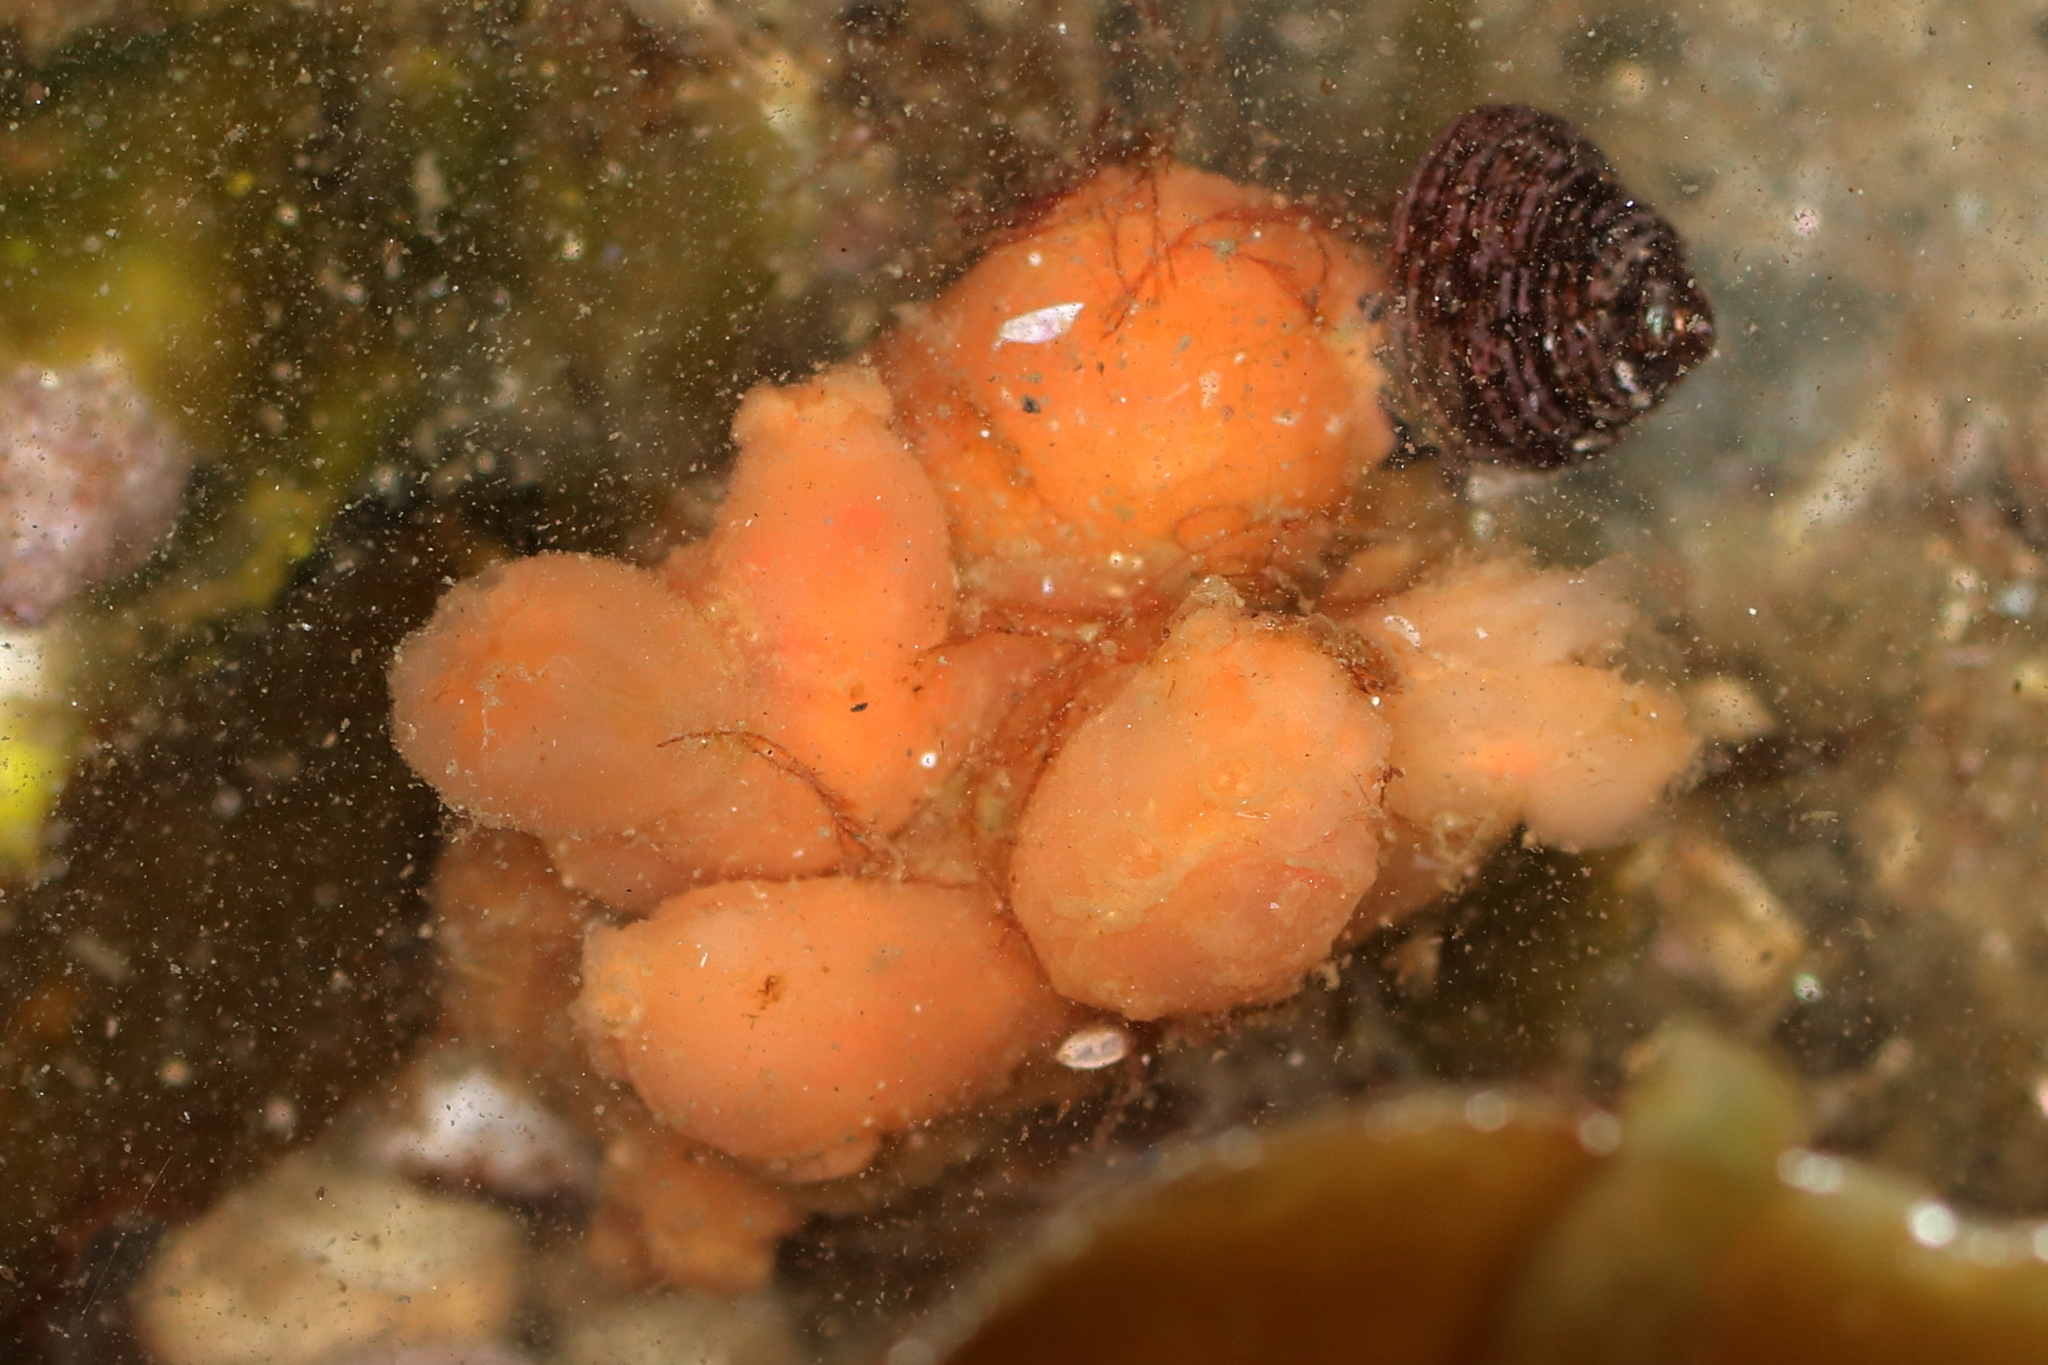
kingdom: Animalia
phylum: Chordata
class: Ascidiacea
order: Aplousobranchia
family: Polyclinidae
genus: Aplidium
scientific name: Aplidium coei
